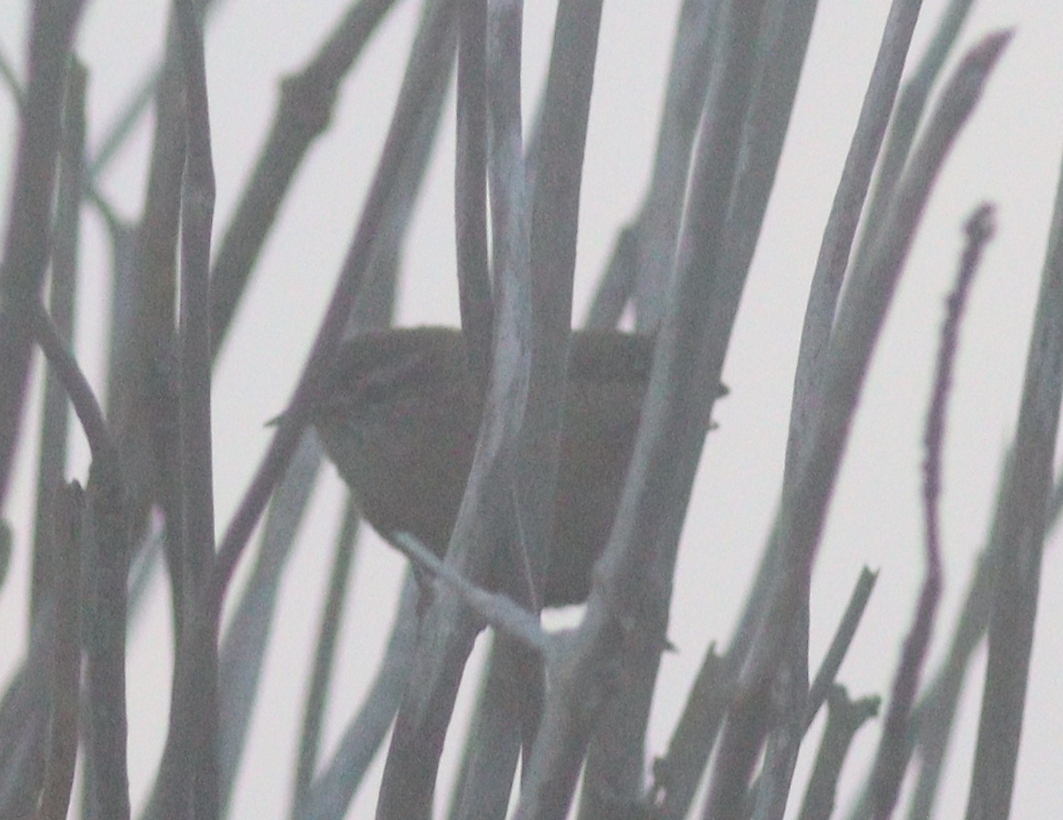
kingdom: Animalia
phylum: Chordata
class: Aves
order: Passeriformes
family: Troglodytidae
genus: Troglodytes
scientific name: Troglodytes troglodytes
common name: Eurasian wren
